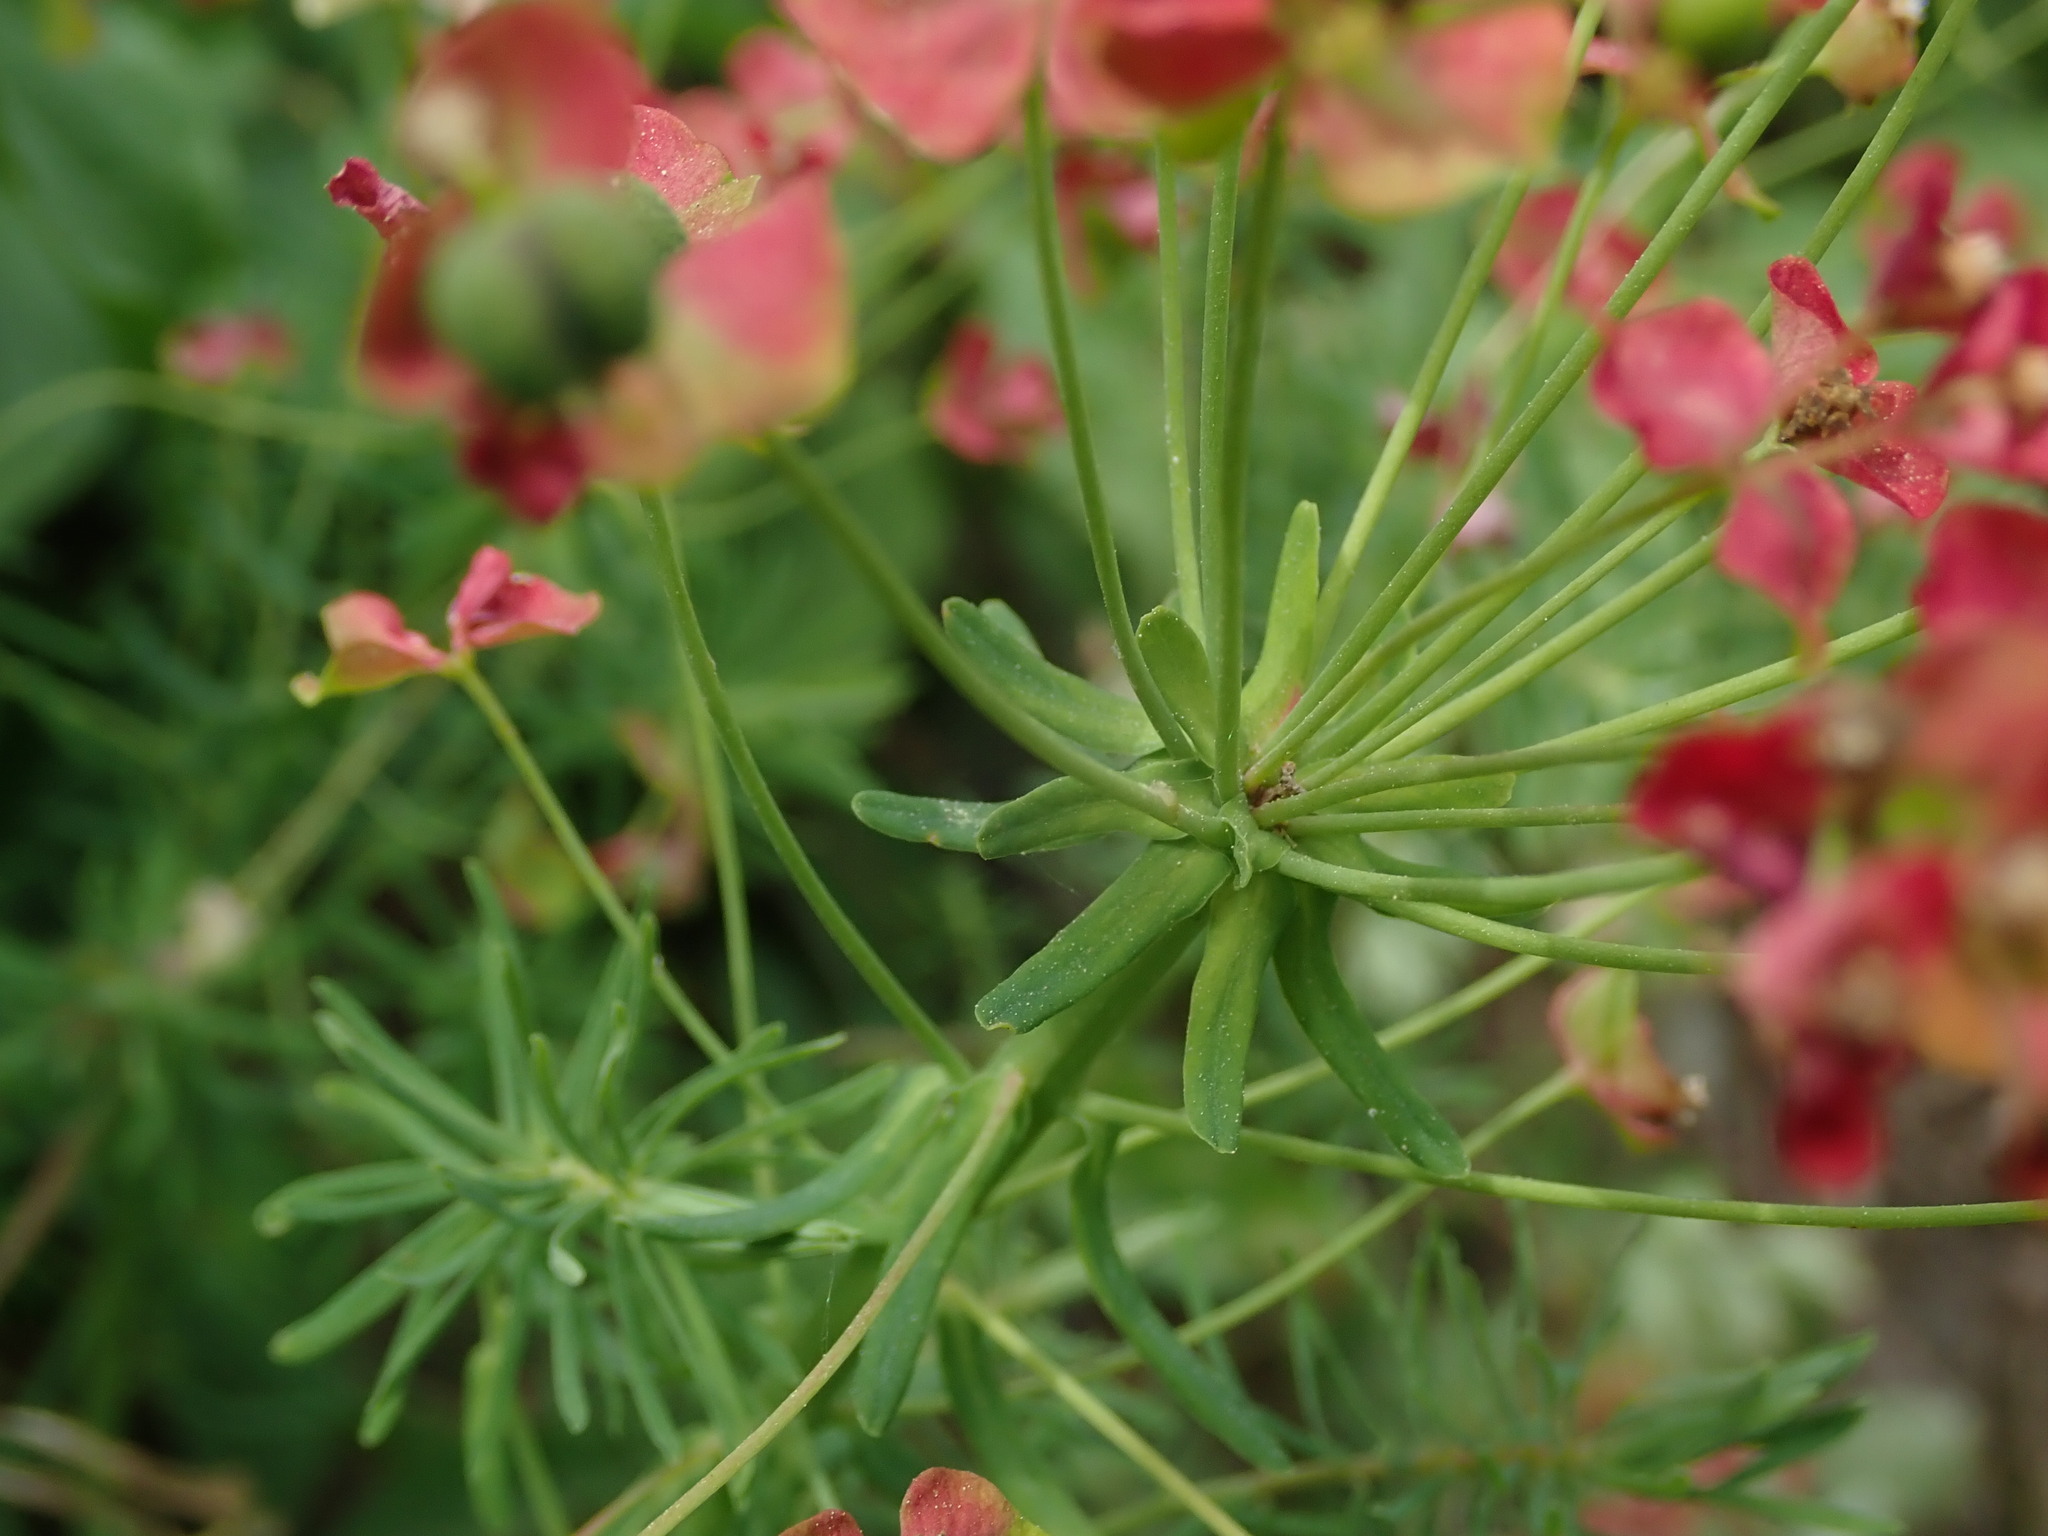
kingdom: Plantae
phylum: Tracheophyta
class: Magnoliopsida
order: Malpighiales
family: Euphorbiaceae
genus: Euphorbia
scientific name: Euphorbia cyparissias
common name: Cypress spurge
